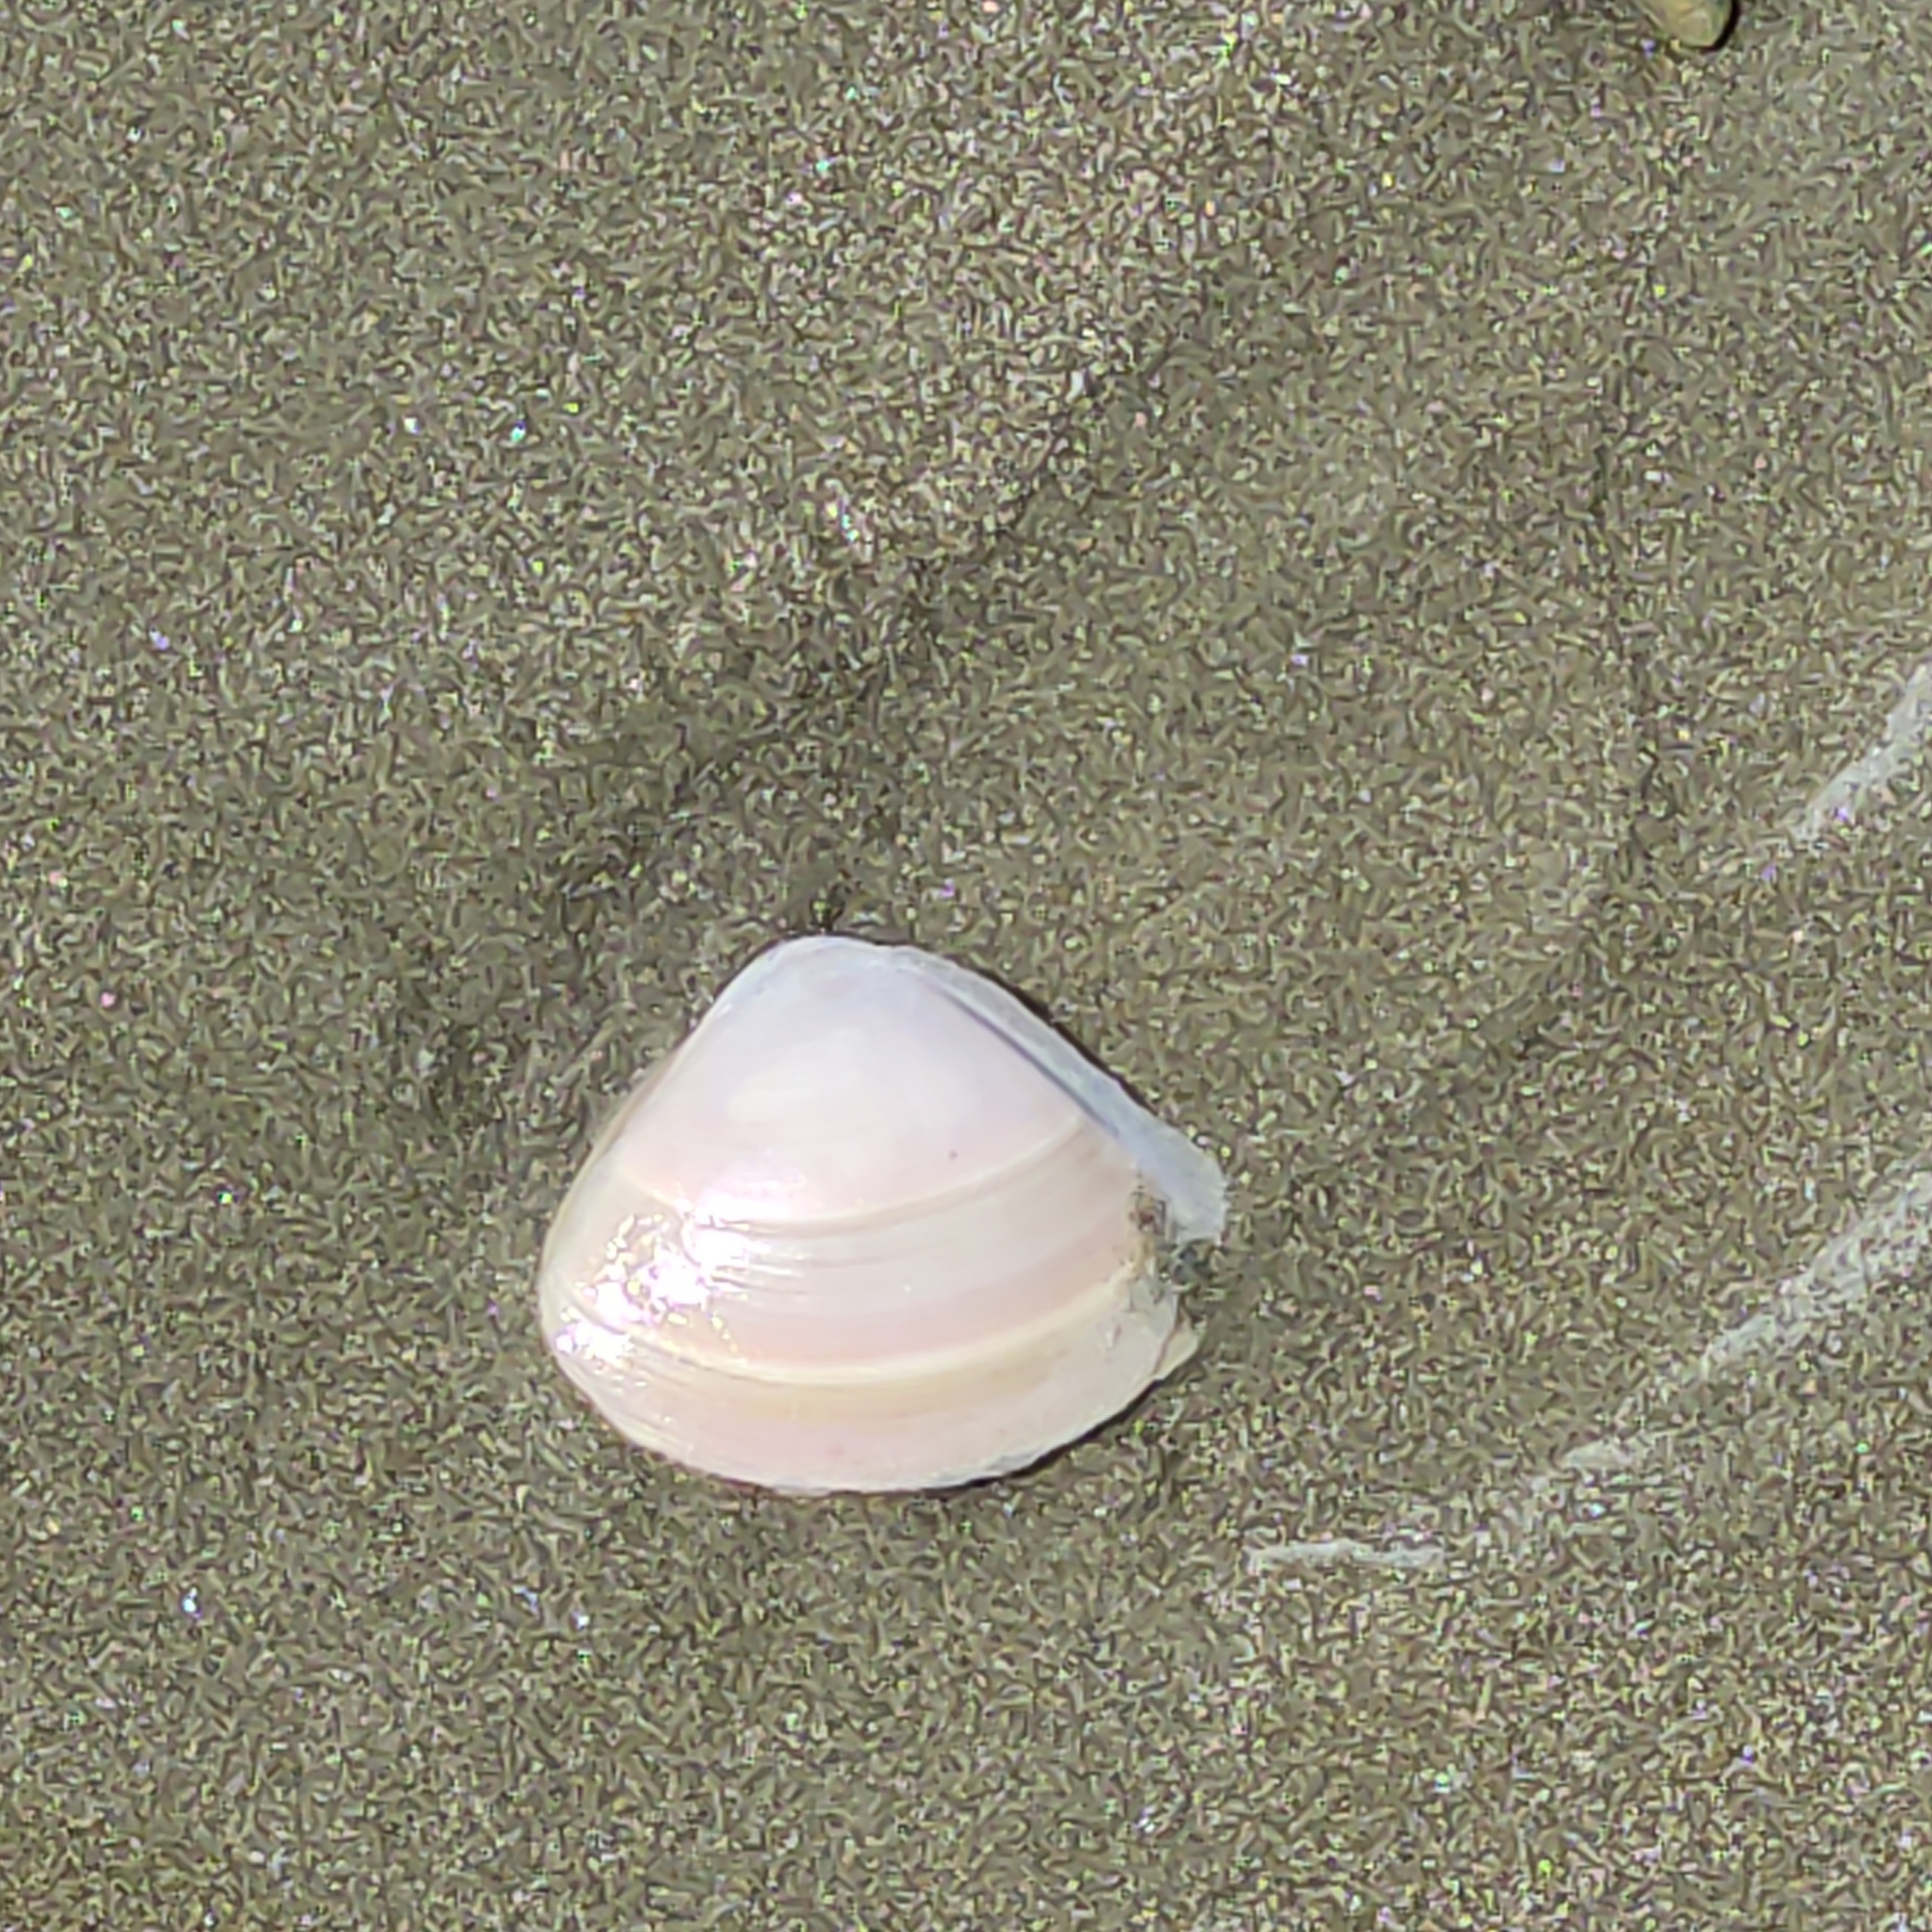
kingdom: Animalia
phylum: Mollusca
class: Bivalvia
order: Venerida
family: Mactridae
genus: Crassula
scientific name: Crassula aequilatera
